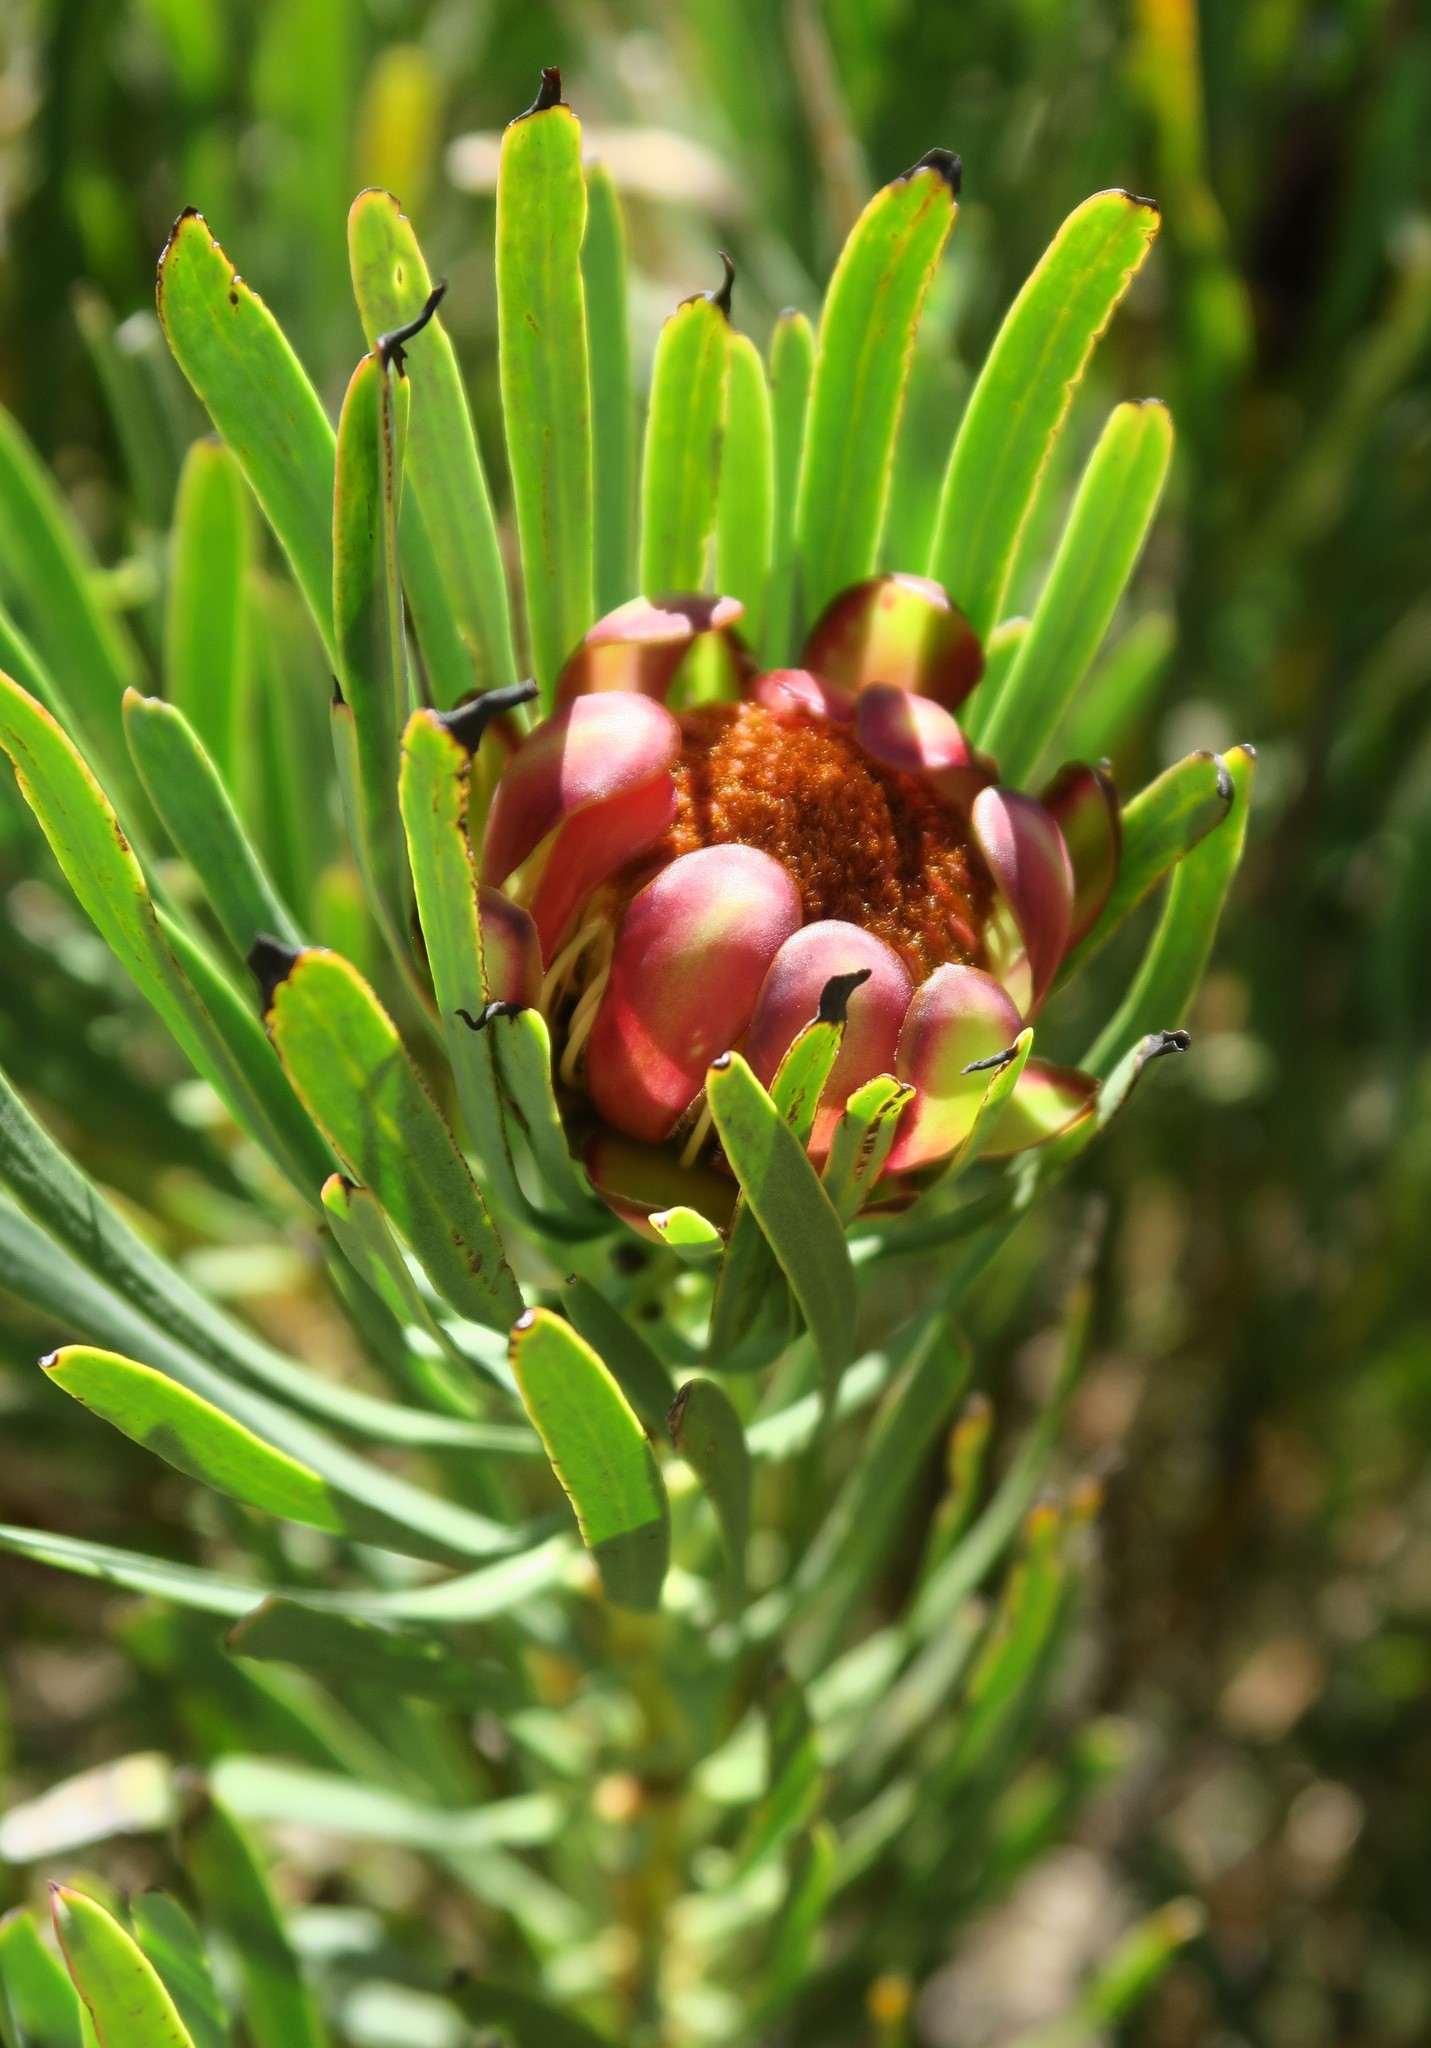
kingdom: Plantae
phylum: Tracheophyta
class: Magnoliopsida
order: Proteales
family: Proteaceae
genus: Protea
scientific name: Protea acuminata
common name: Black-rim sugarbush
